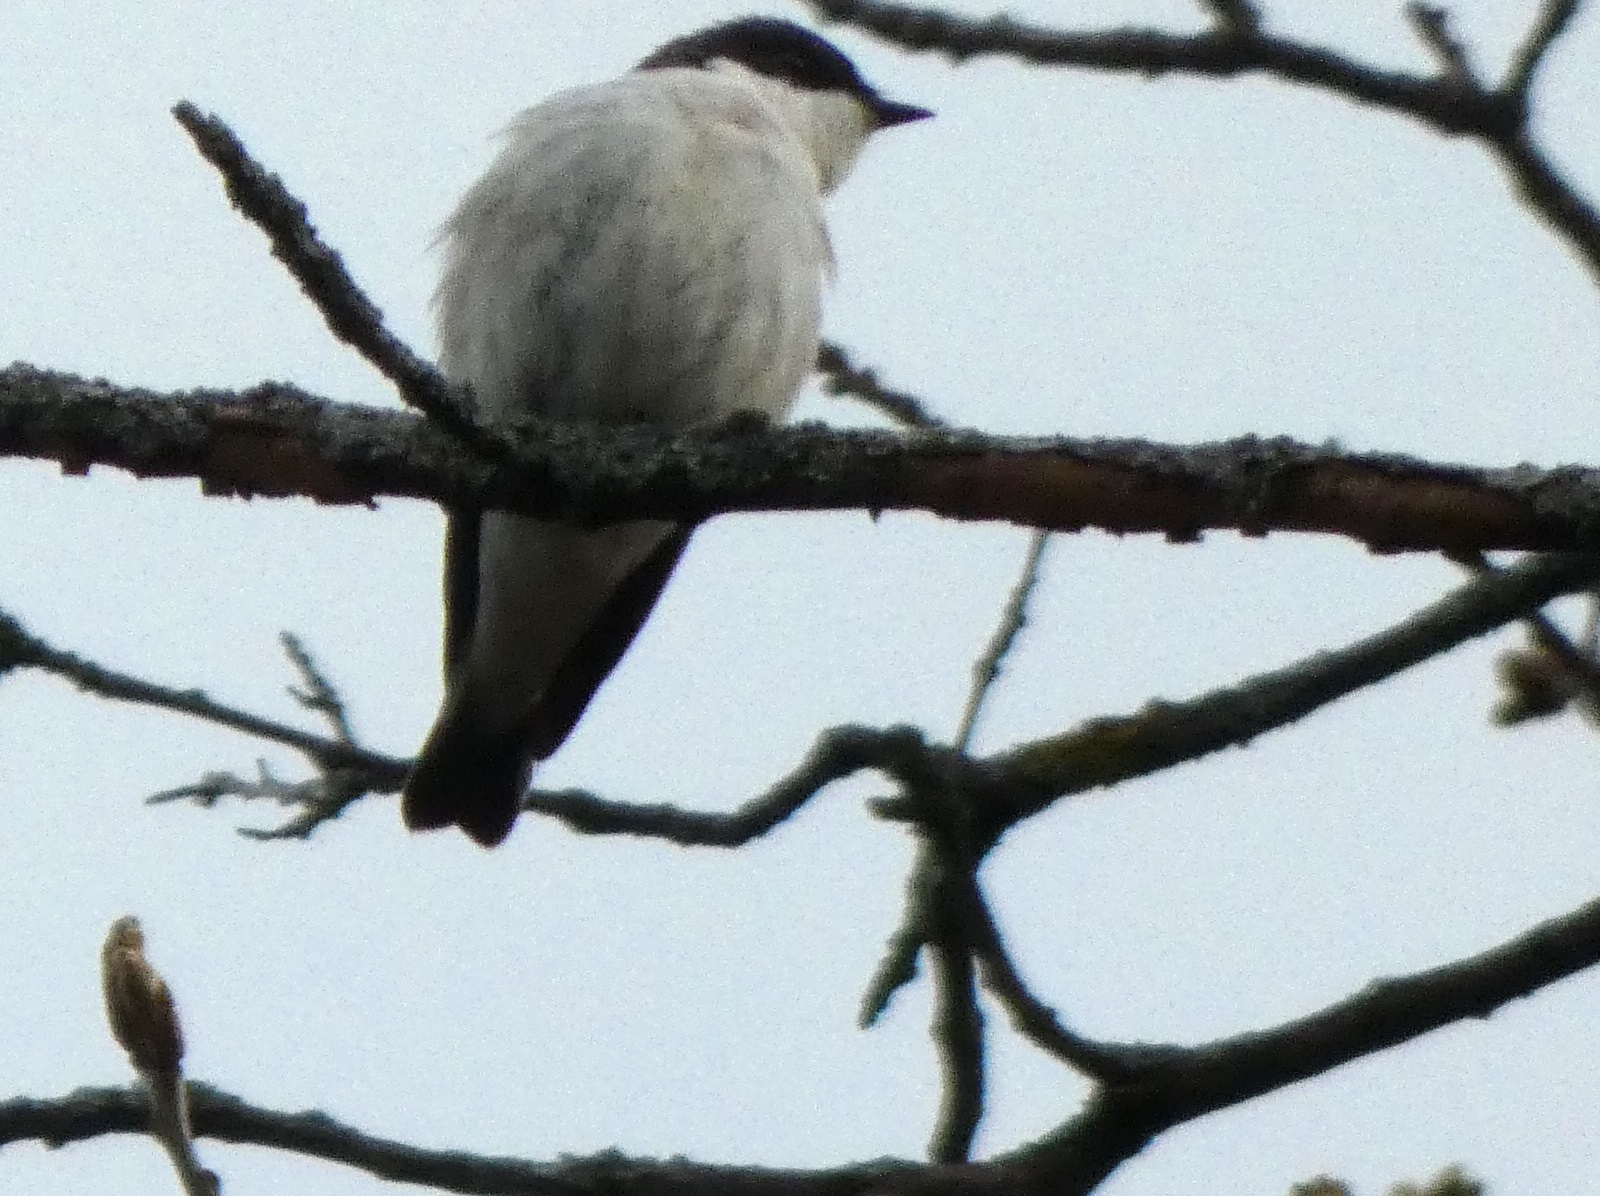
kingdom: Animalia
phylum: Chordata
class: Aves
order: Passeriformes
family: Muscicapidae
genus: Ficedula
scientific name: Ficedula hypoleuca
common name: European pied flycatcher
